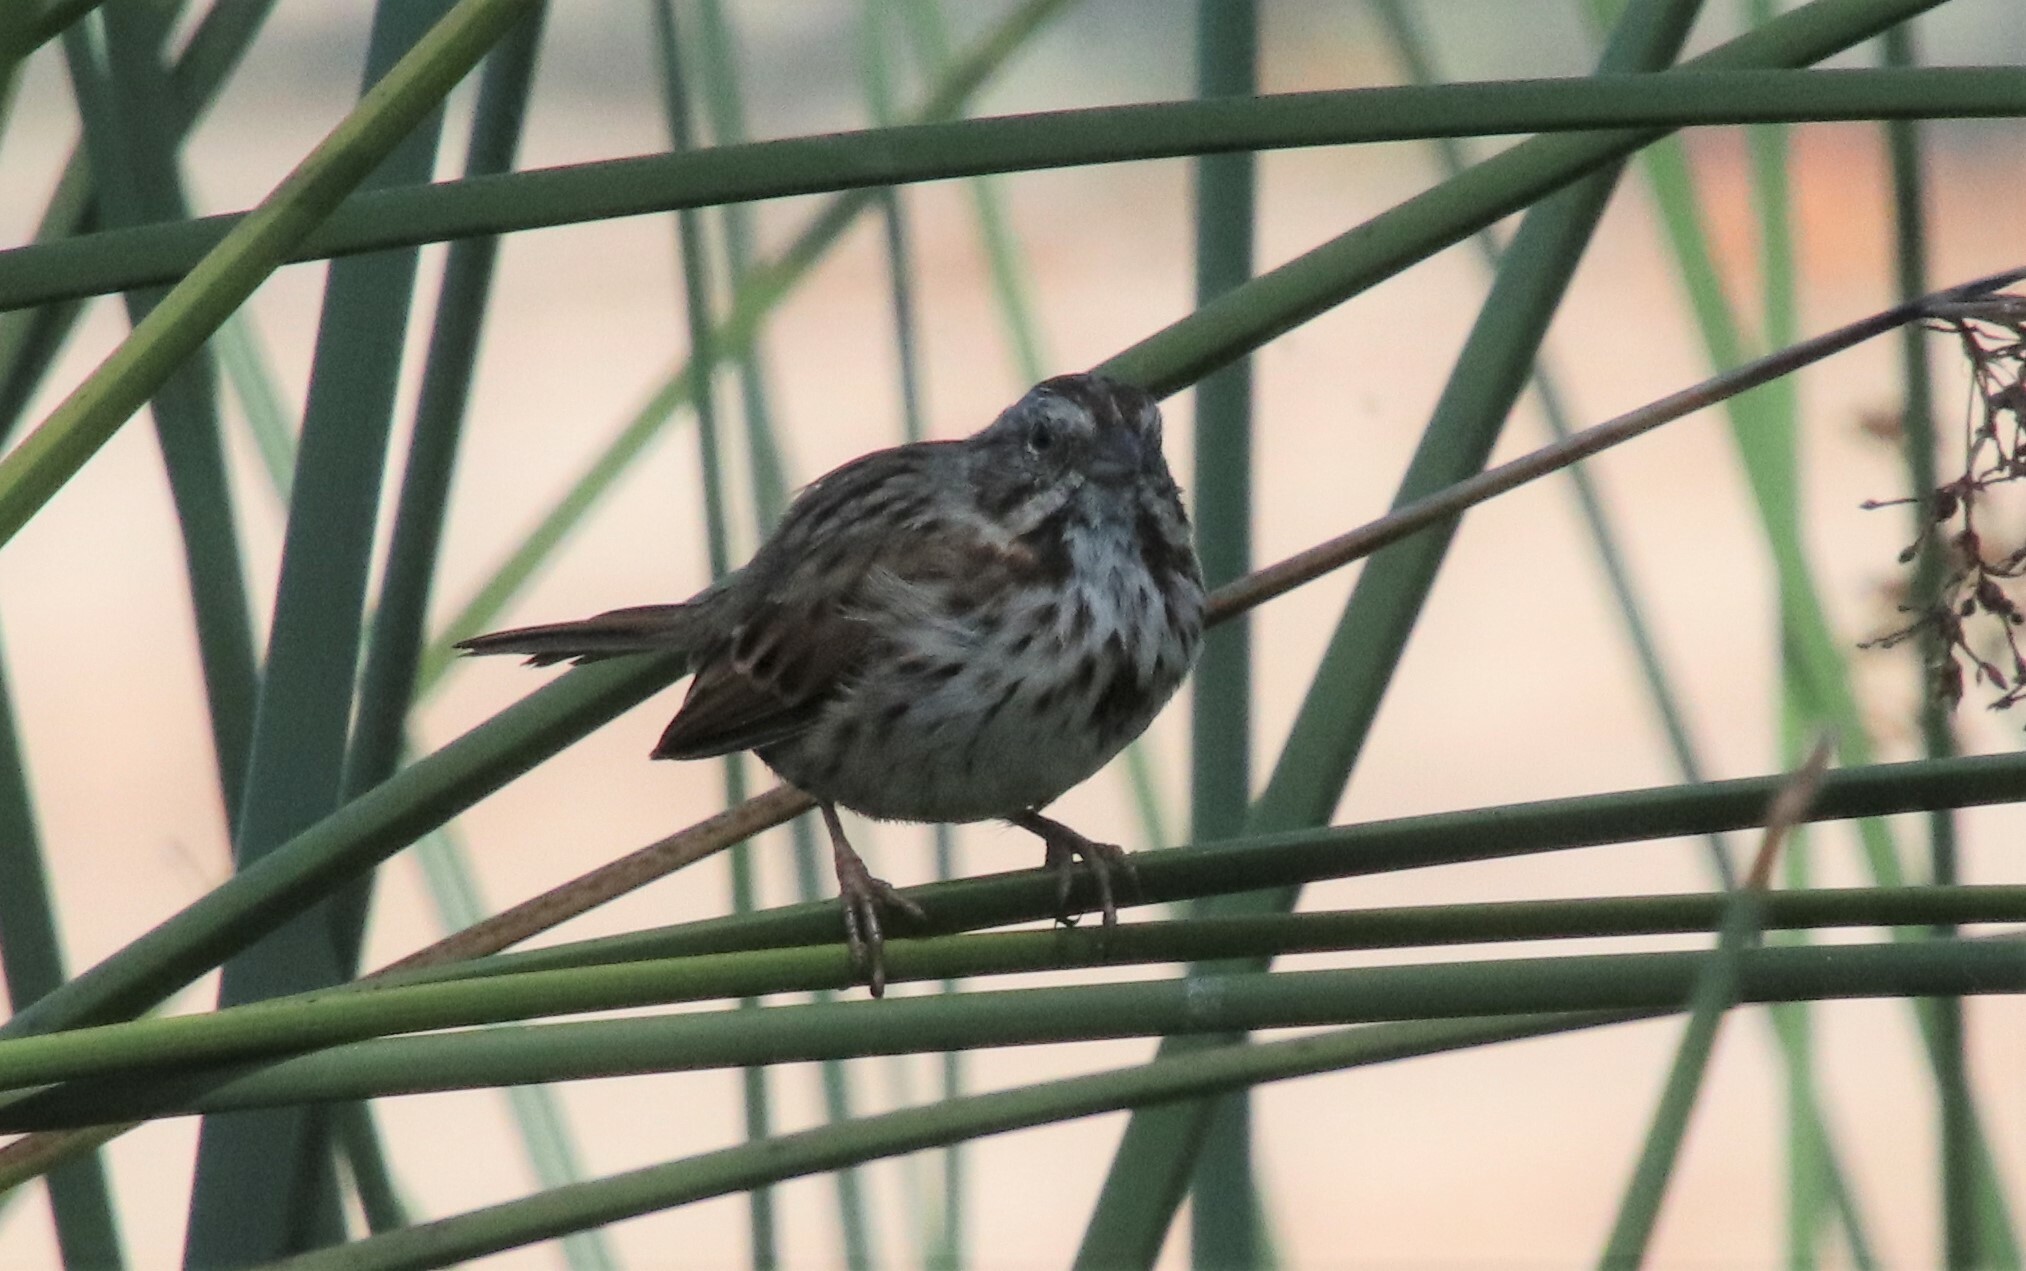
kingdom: Animalia
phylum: Chordata
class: Aves
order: Passeriformes
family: Passerellidae
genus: Melospiza
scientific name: Melospiza melodia
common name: Song sparrow
